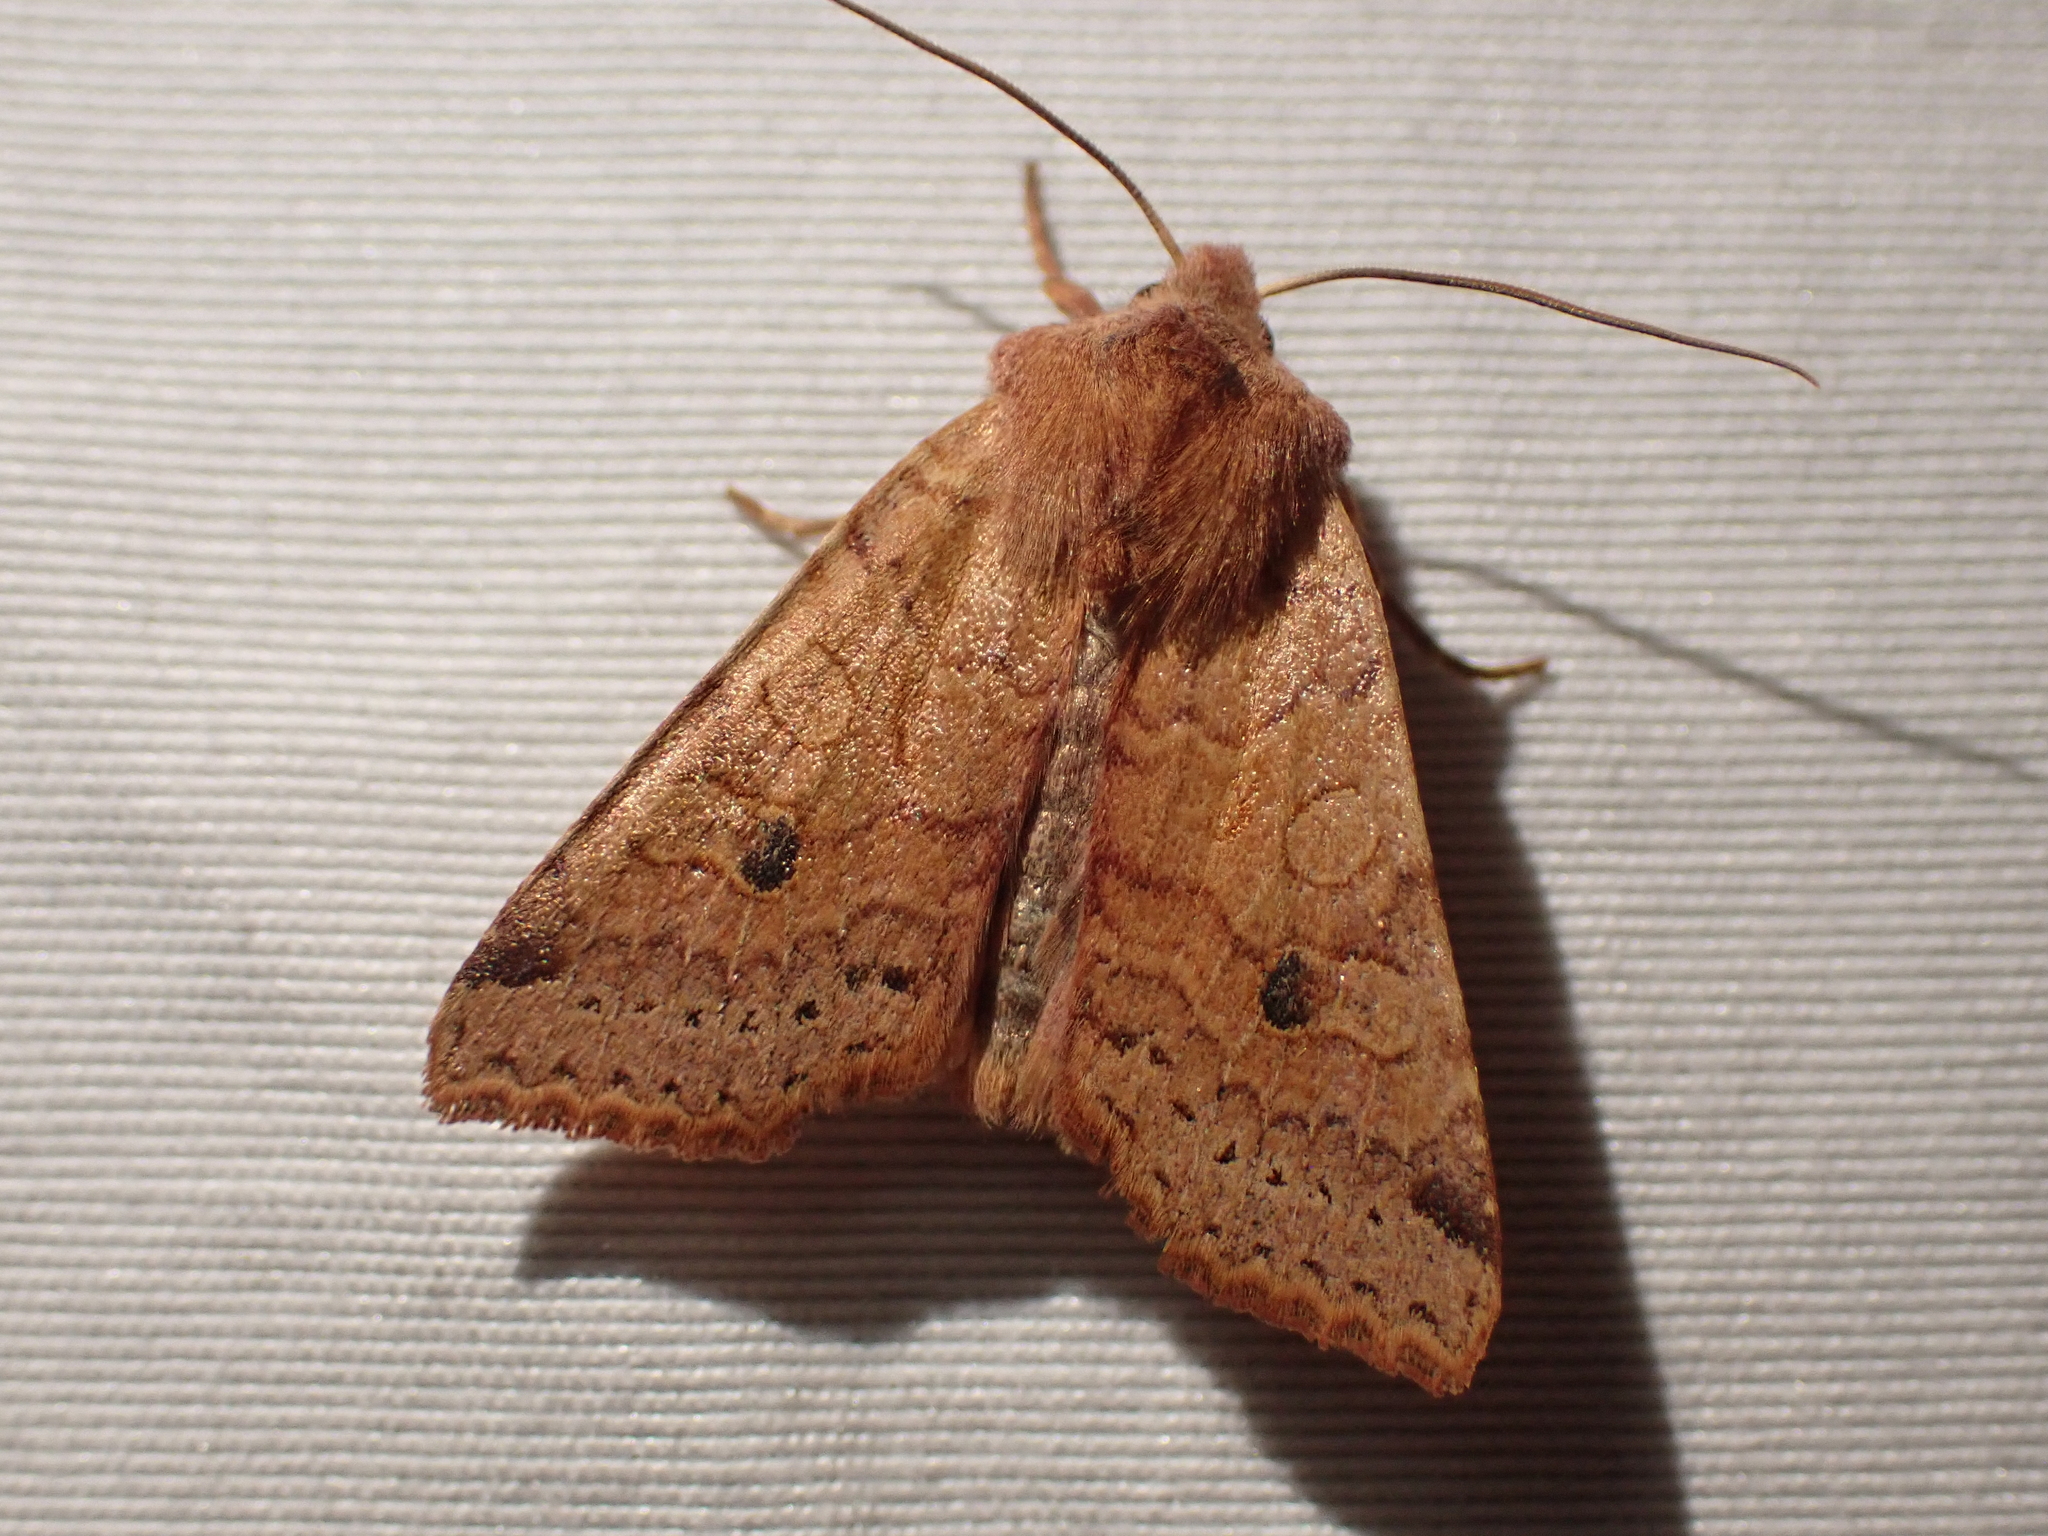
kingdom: Animalia
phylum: Arthropoda
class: Insecta
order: Lepidoptera
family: Noctuidae
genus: Agrochola
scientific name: Agrochola purpurea
